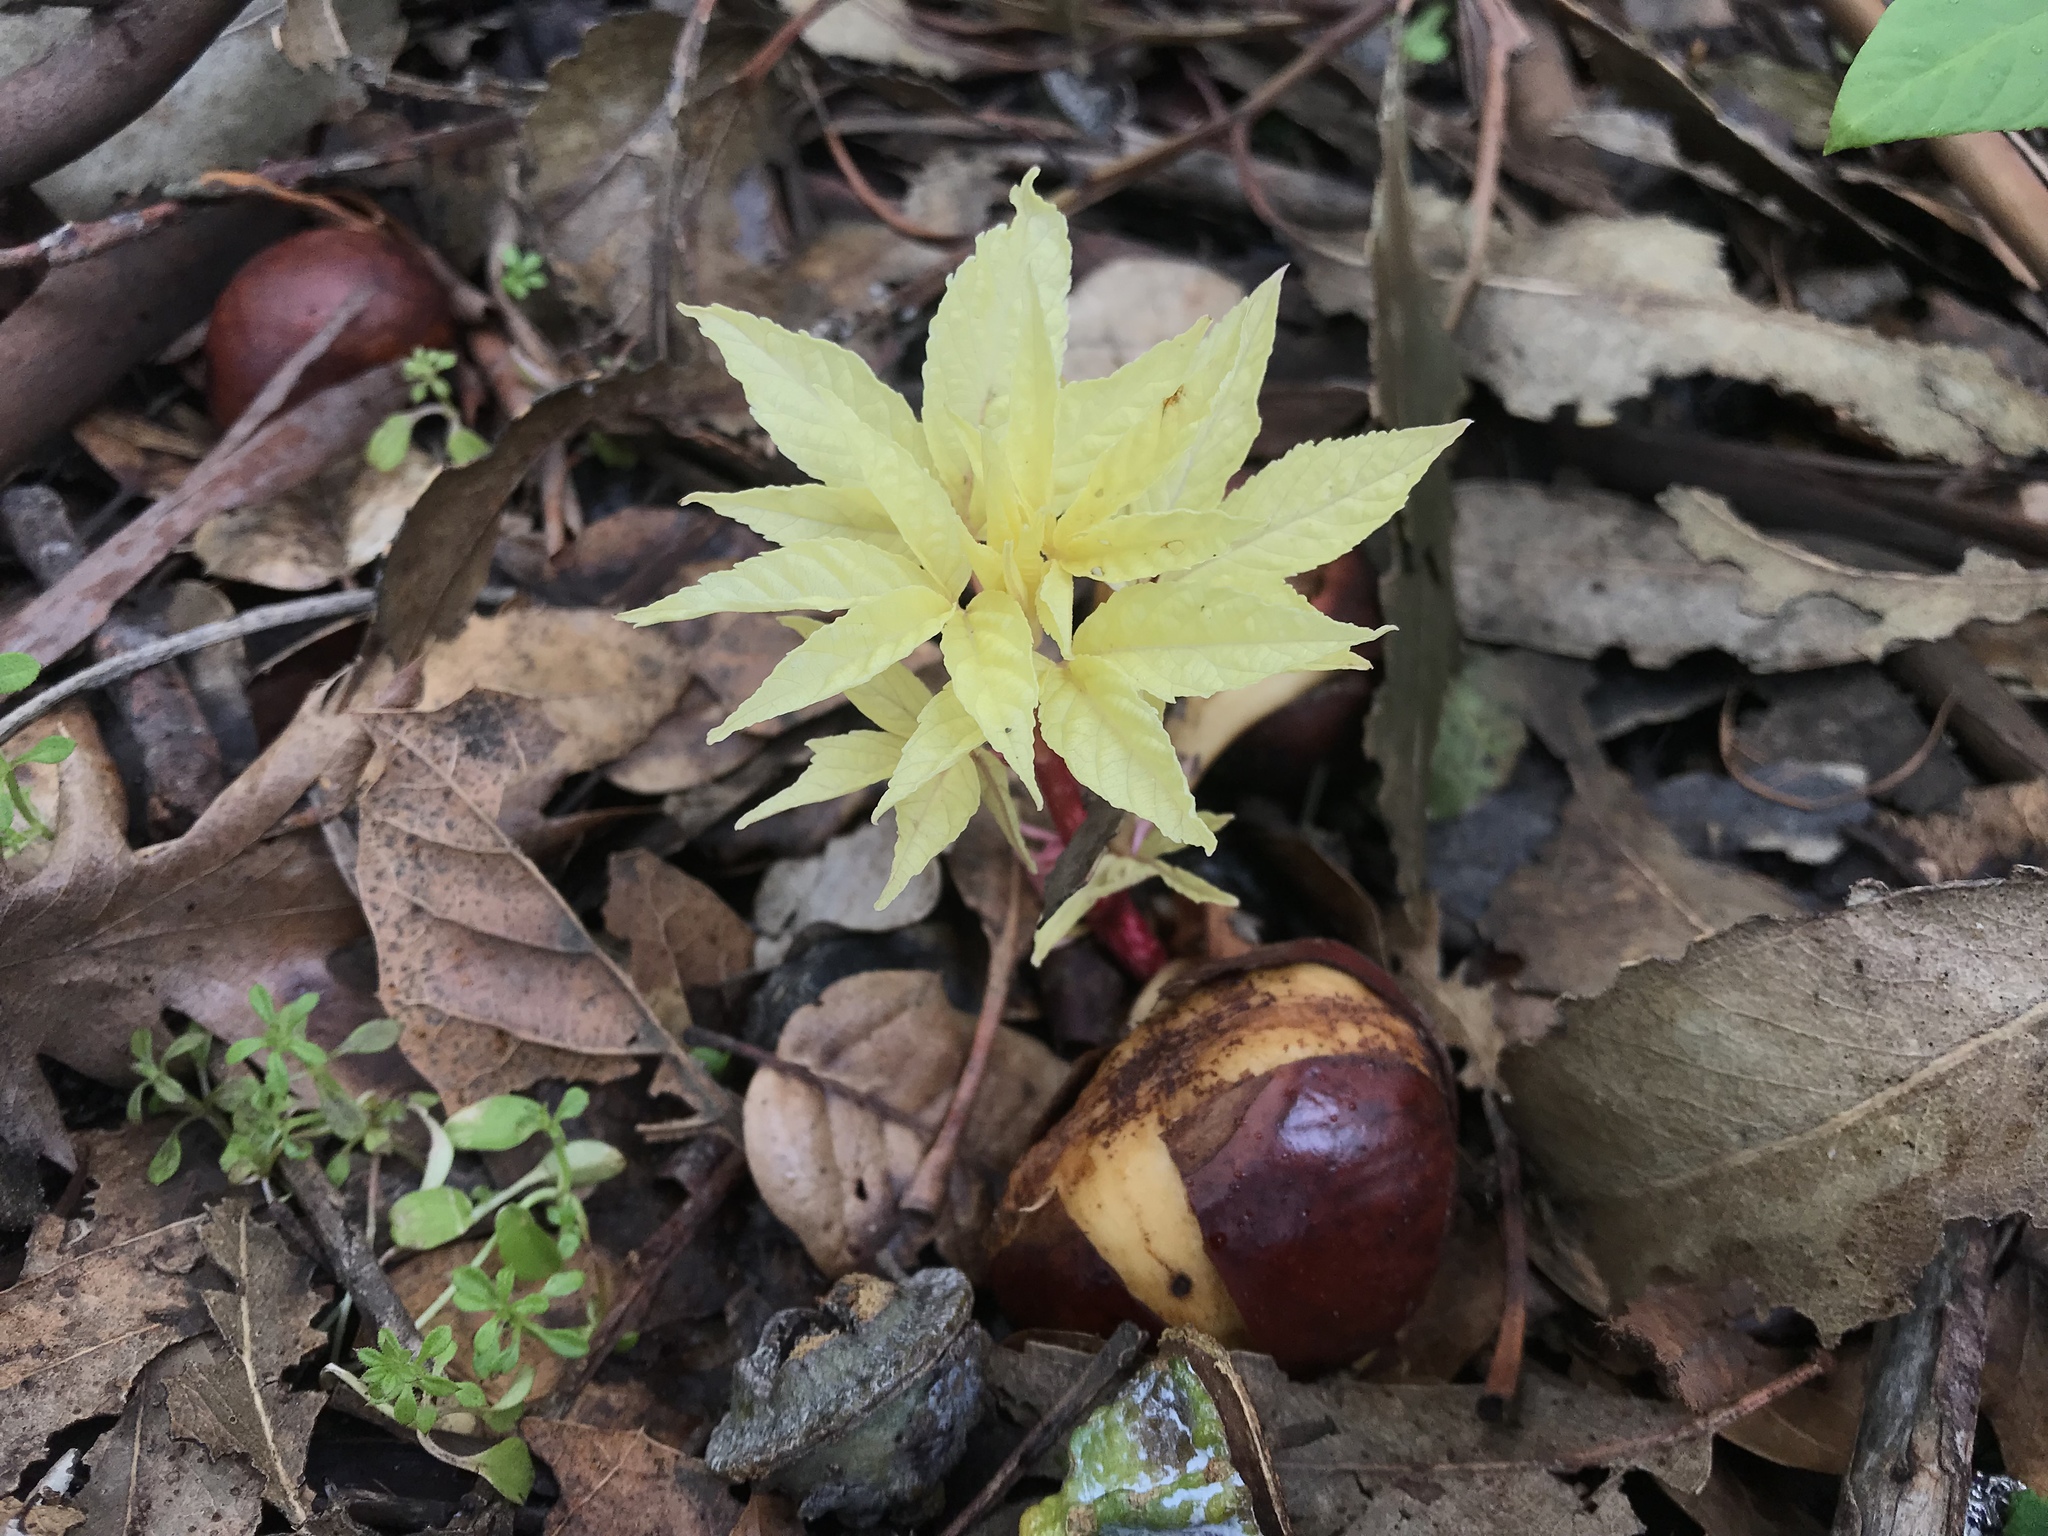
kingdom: Plantae
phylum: Tracheophyta
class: Magnoliopsida
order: Sapindales
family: Sapindaceae
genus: Aesculus
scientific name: Aesculus californica
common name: California buckeye
